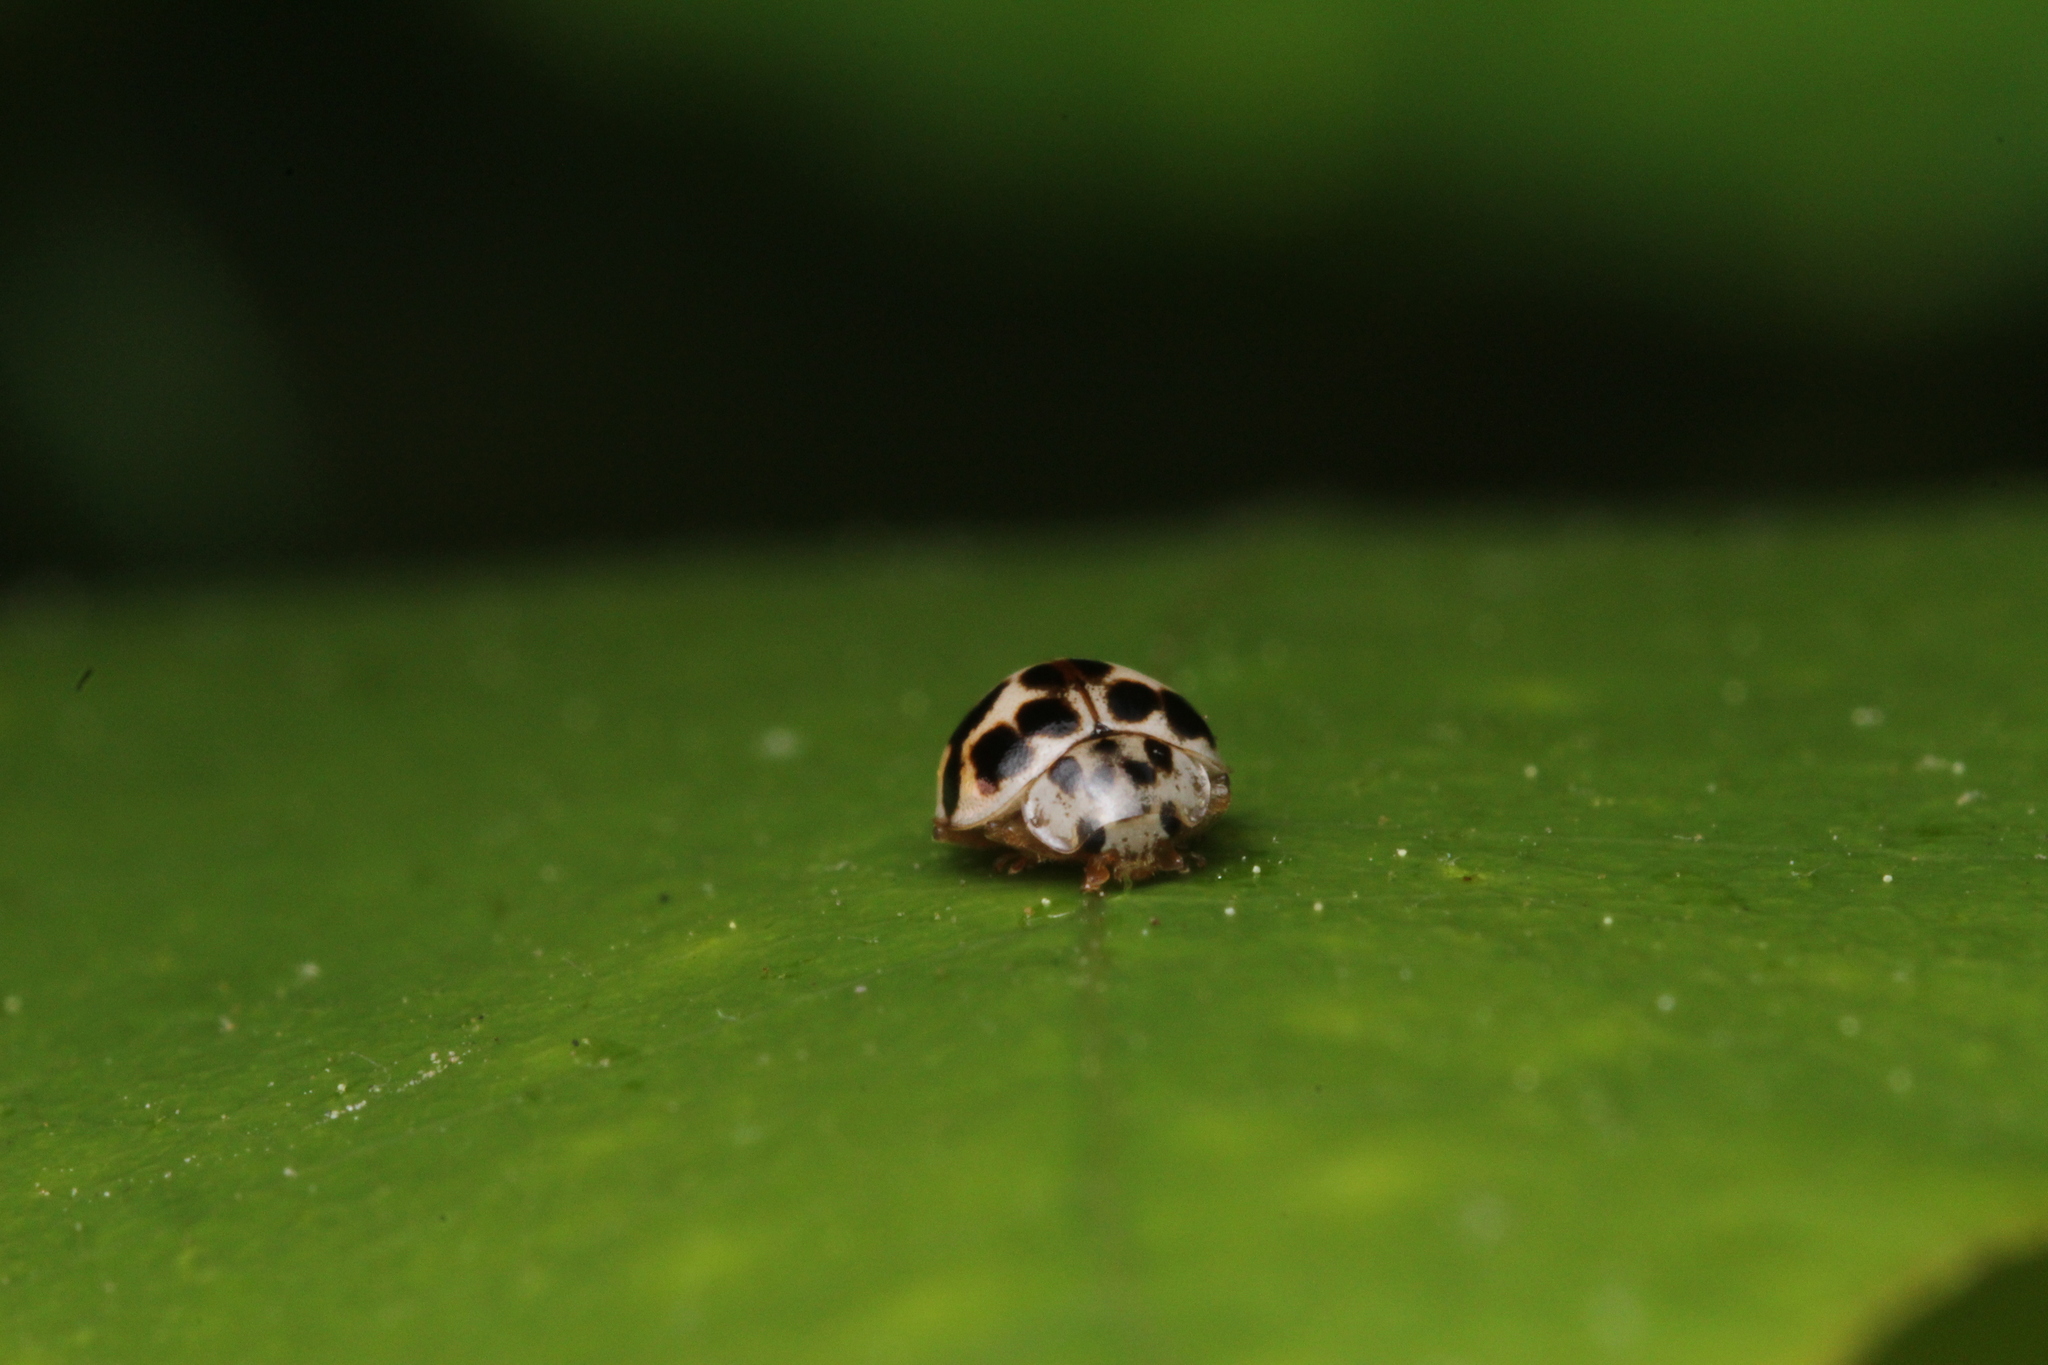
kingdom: Animalia
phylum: Arthropoda
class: Insecta
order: Coleoptera
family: Coccinellidae
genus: Psyllobora
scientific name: Psyllobora vigintimaculata
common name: Ladybird beetle
